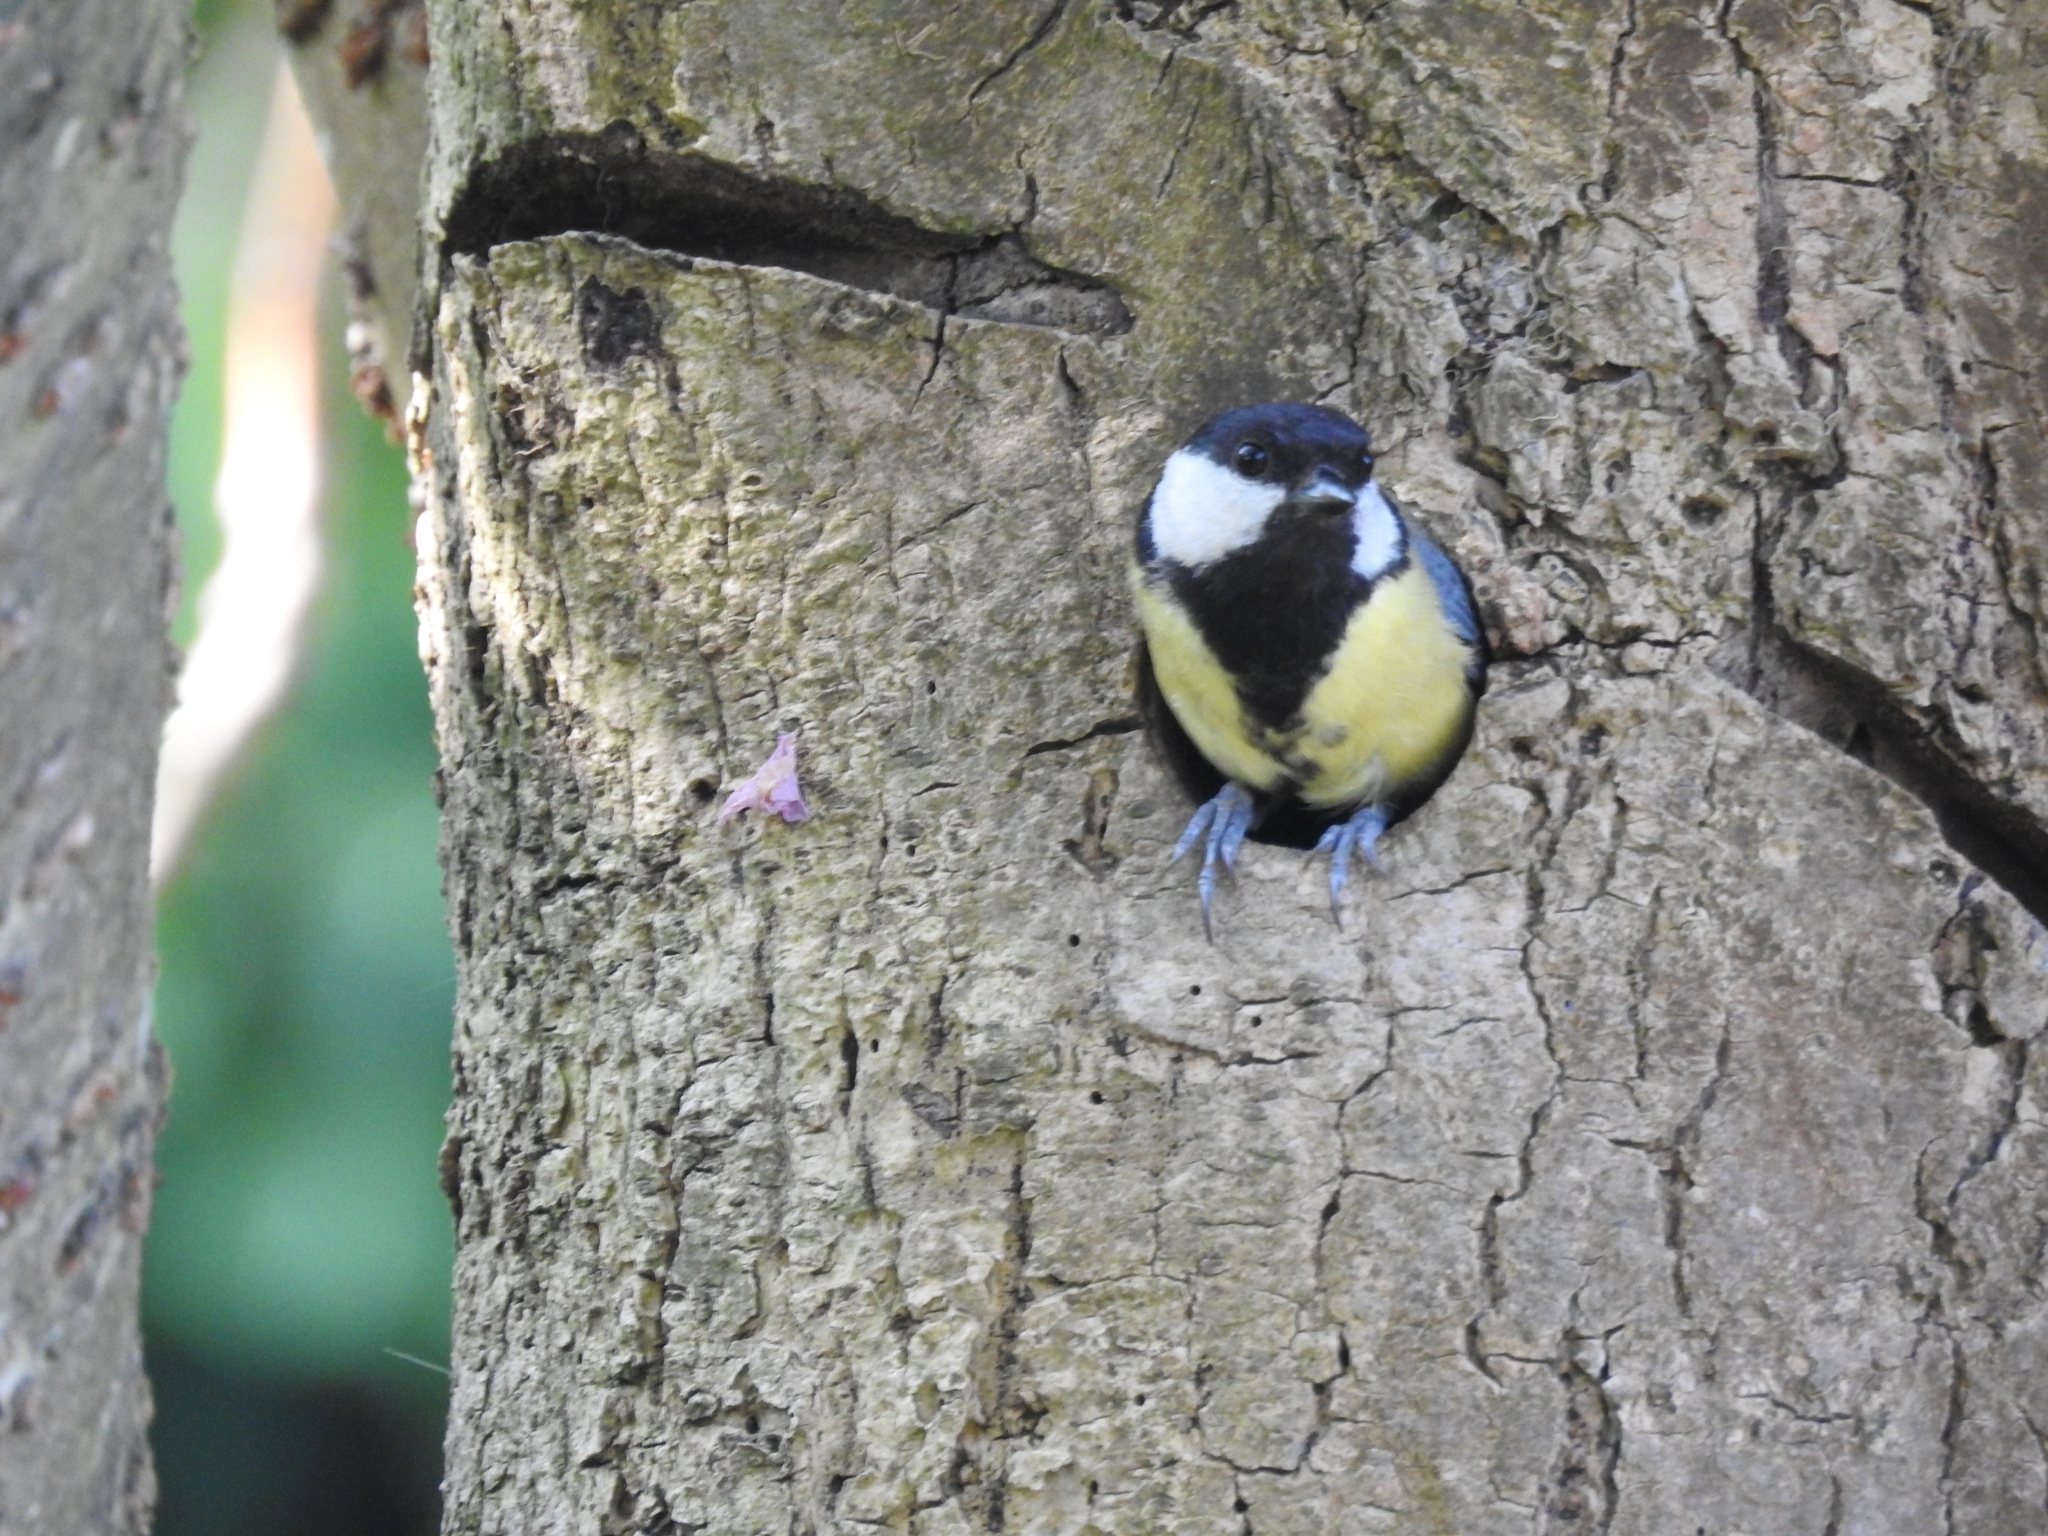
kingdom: Animalia
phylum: Chordata
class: Aves
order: Passeriformes
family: Paridae
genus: Parus
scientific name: Parus major
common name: Great tit
